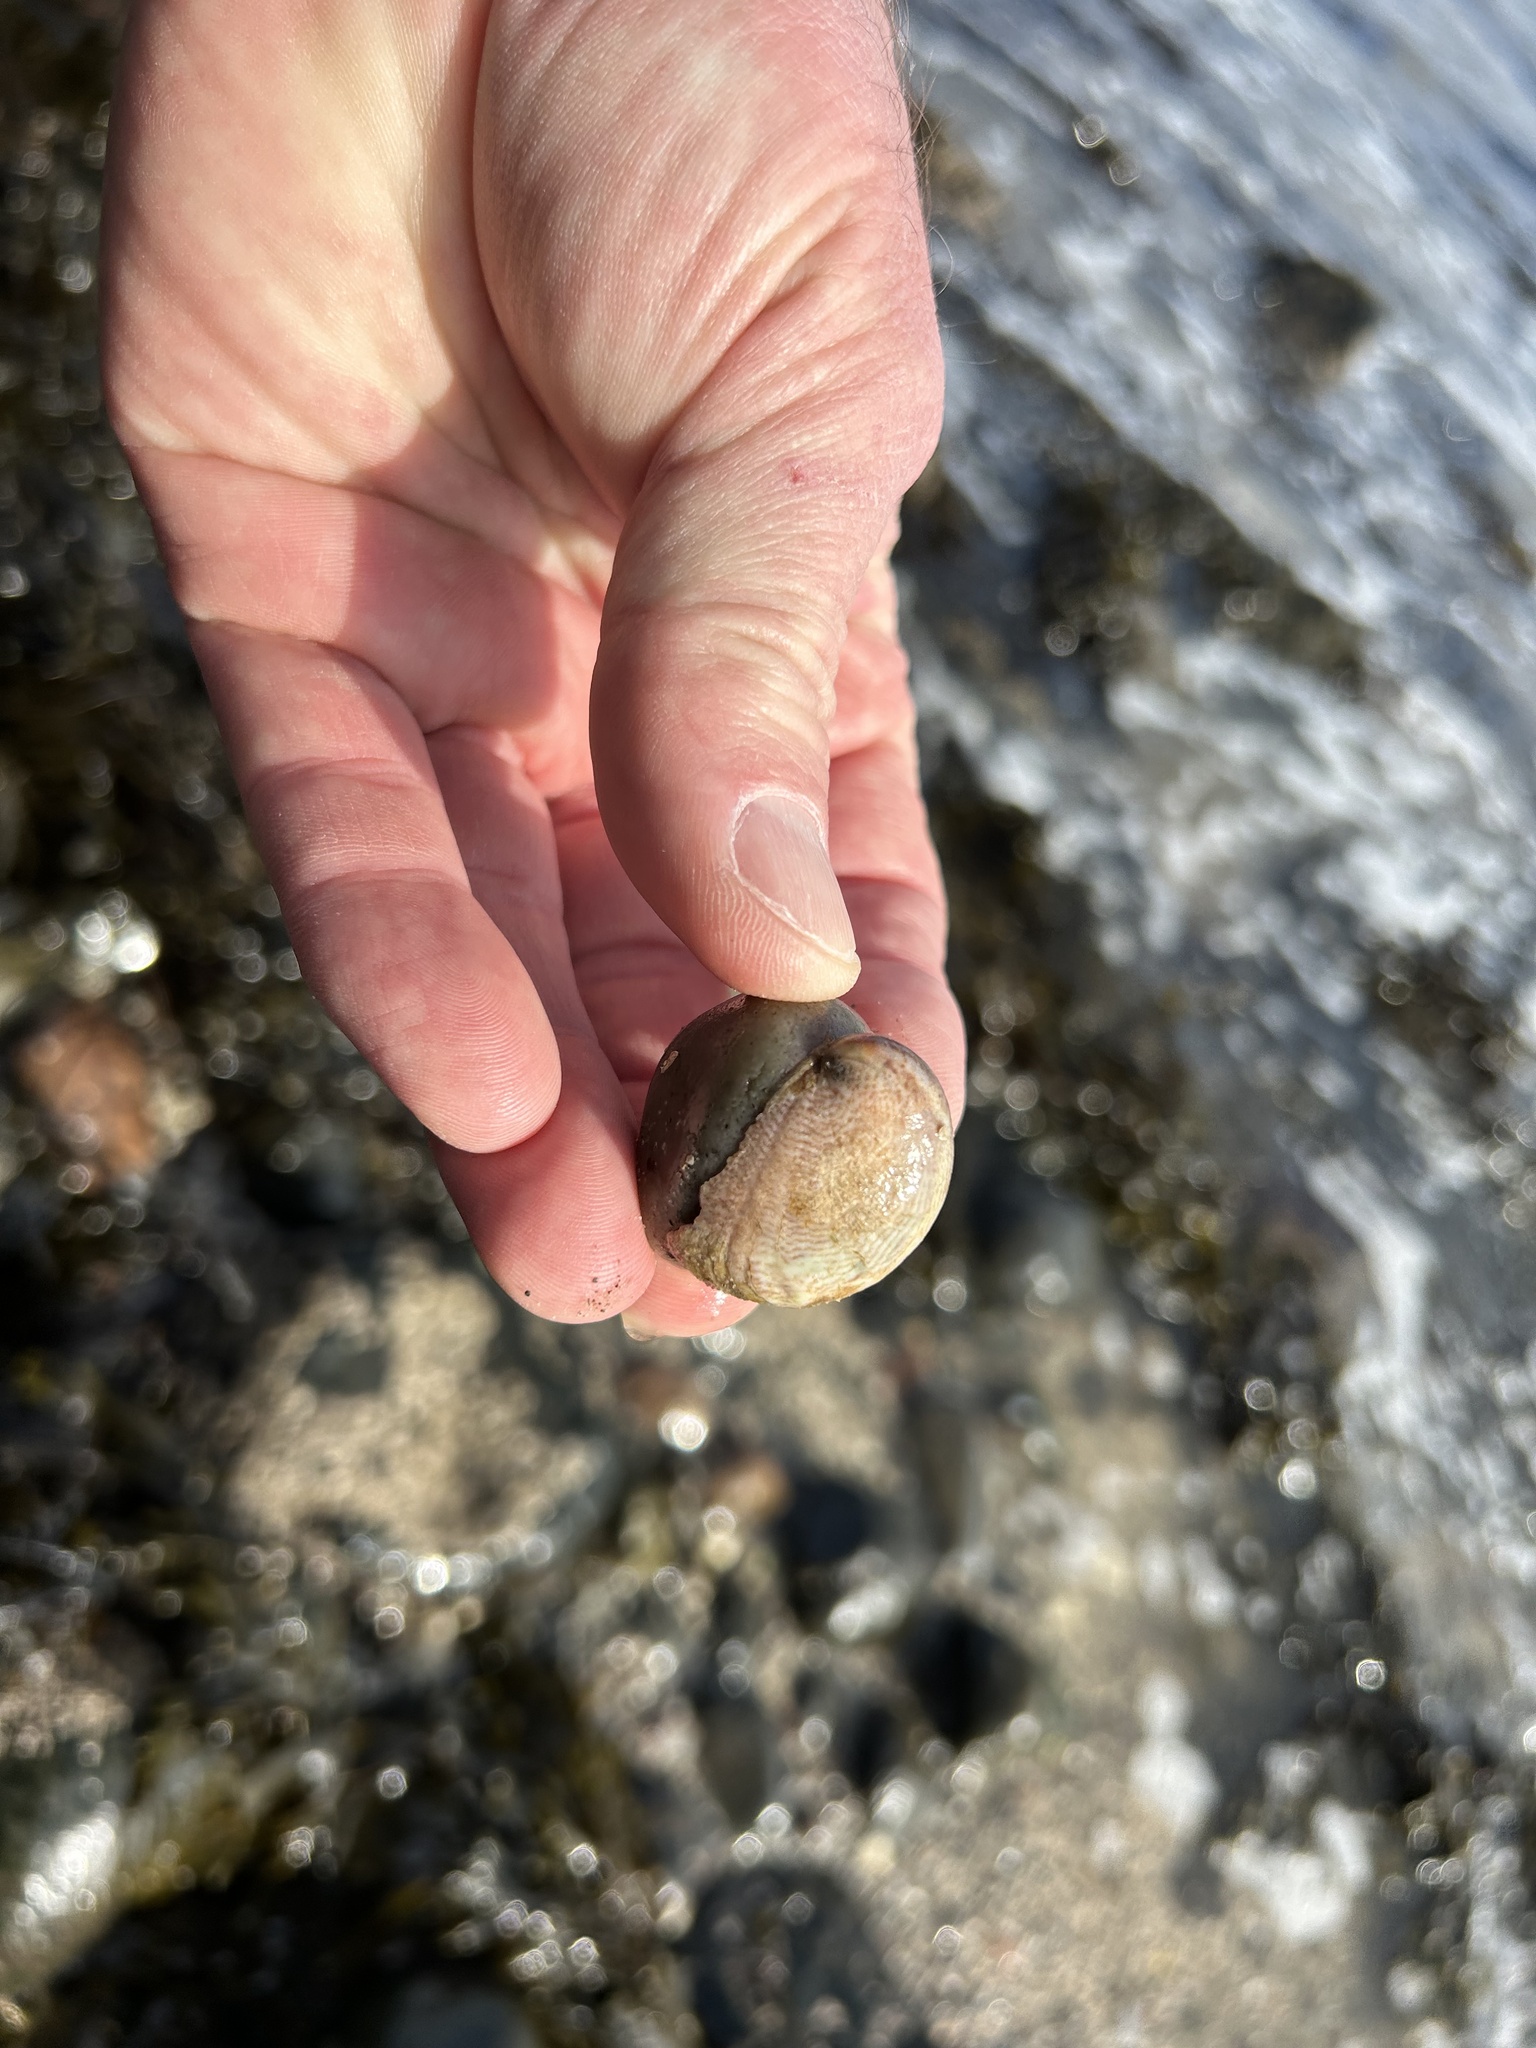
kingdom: Animalia
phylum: Mollusca
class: Gastropoda
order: Littorinimorpha
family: Calyptraeidae
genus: Crepidula
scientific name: Crepidula fornicata
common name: Slipper limpet
